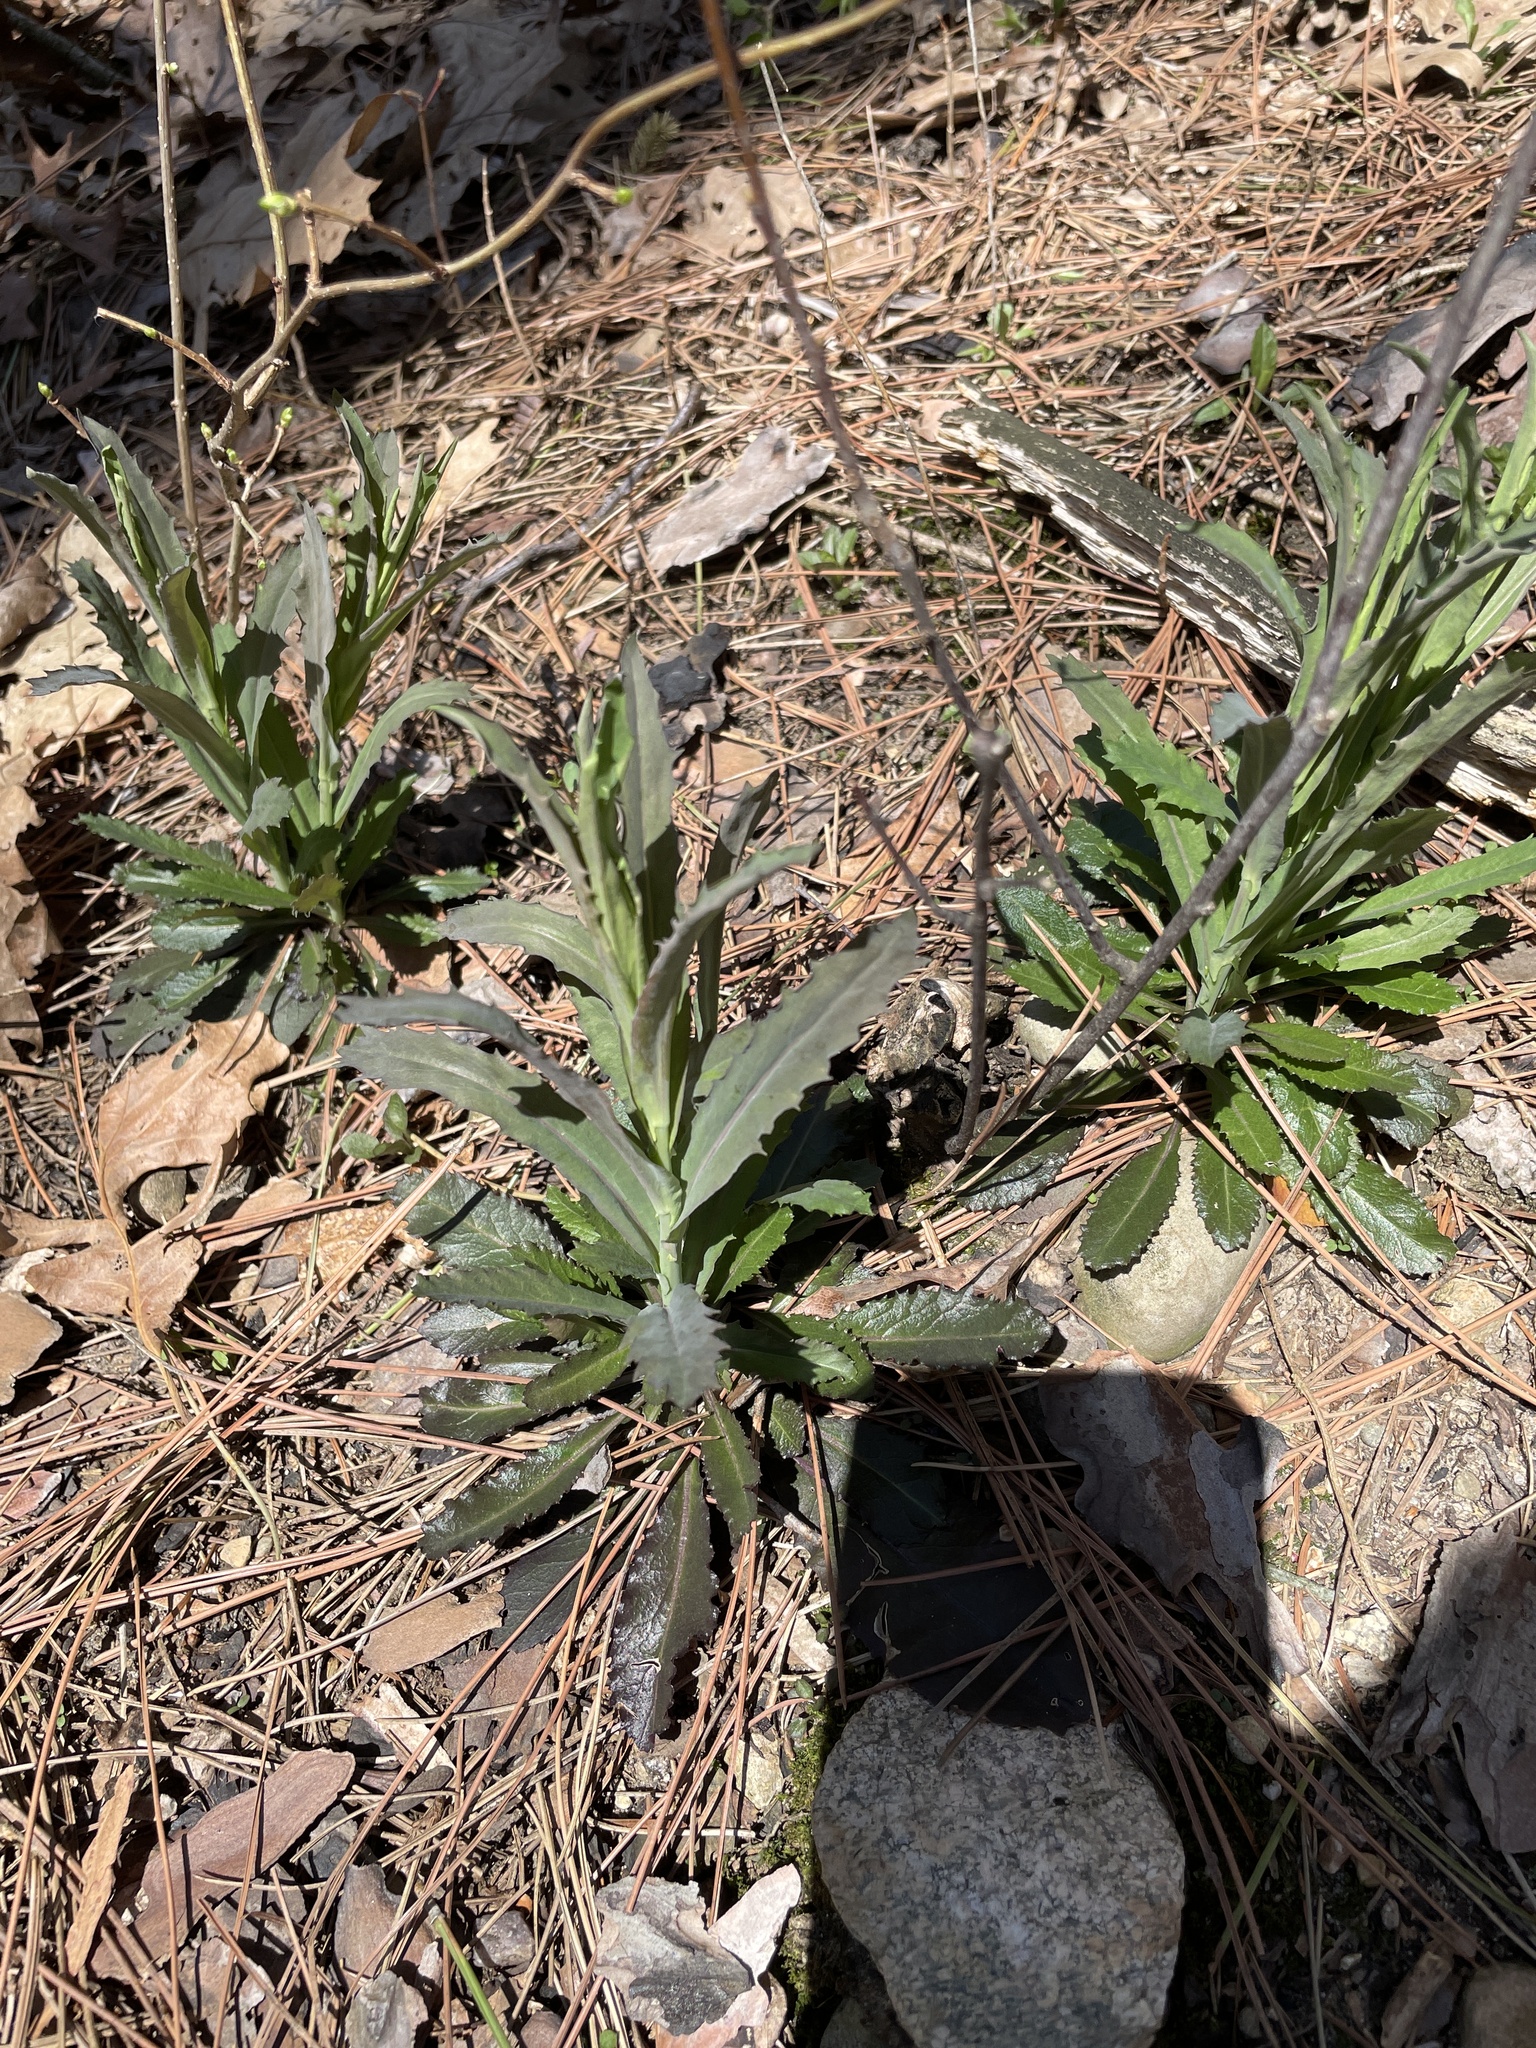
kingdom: Plantae
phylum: Tracheophyta
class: Magnoliopsida
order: Brassicales
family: Brassicaceae
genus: Borodinia
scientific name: Borodinia laevigata
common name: Smooth rockcress
